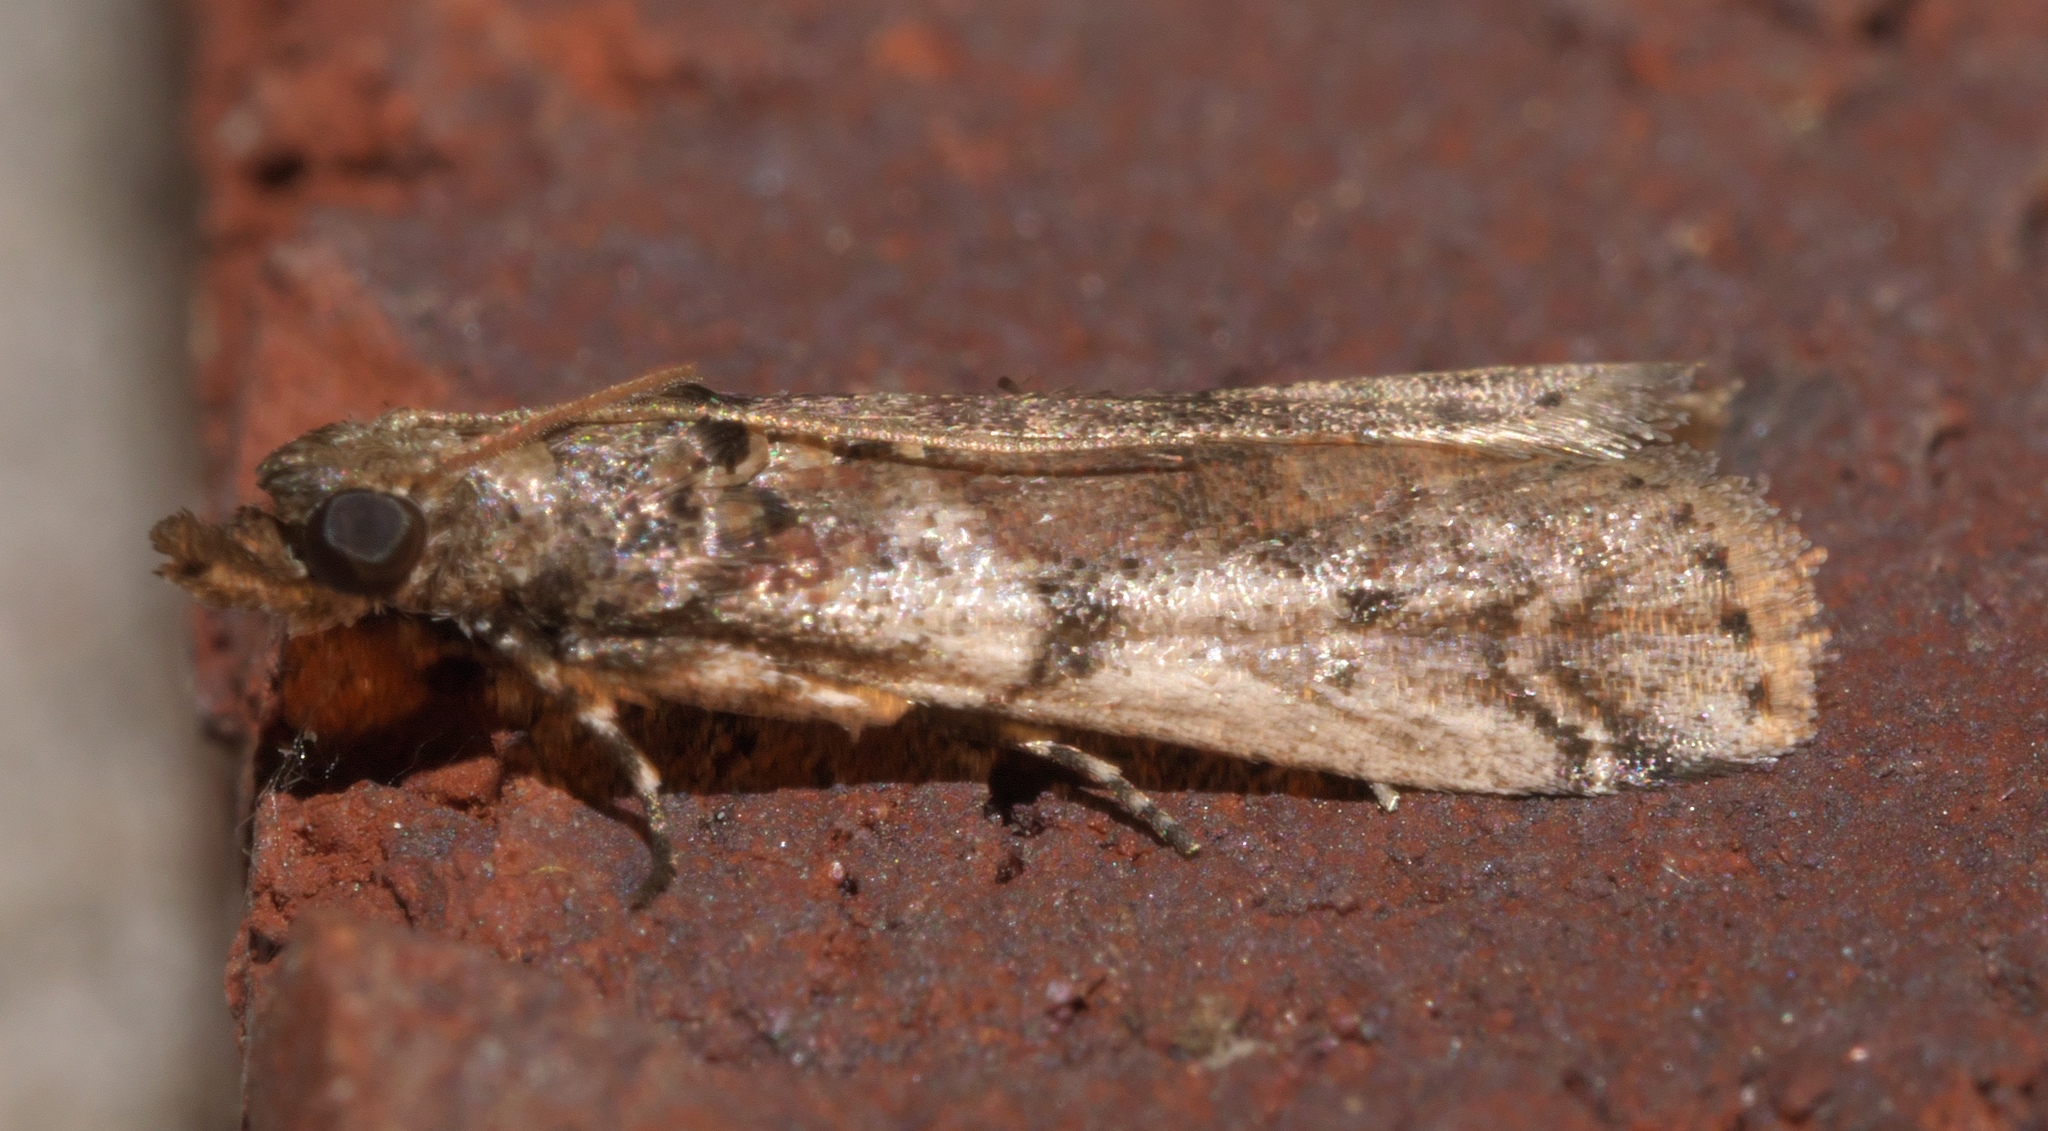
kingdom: Animalia
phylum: Arthropoda
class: Insecta
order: Lepidoptera
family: Pyralidae
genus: Laetilia
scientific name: Laetilia coccidivora
